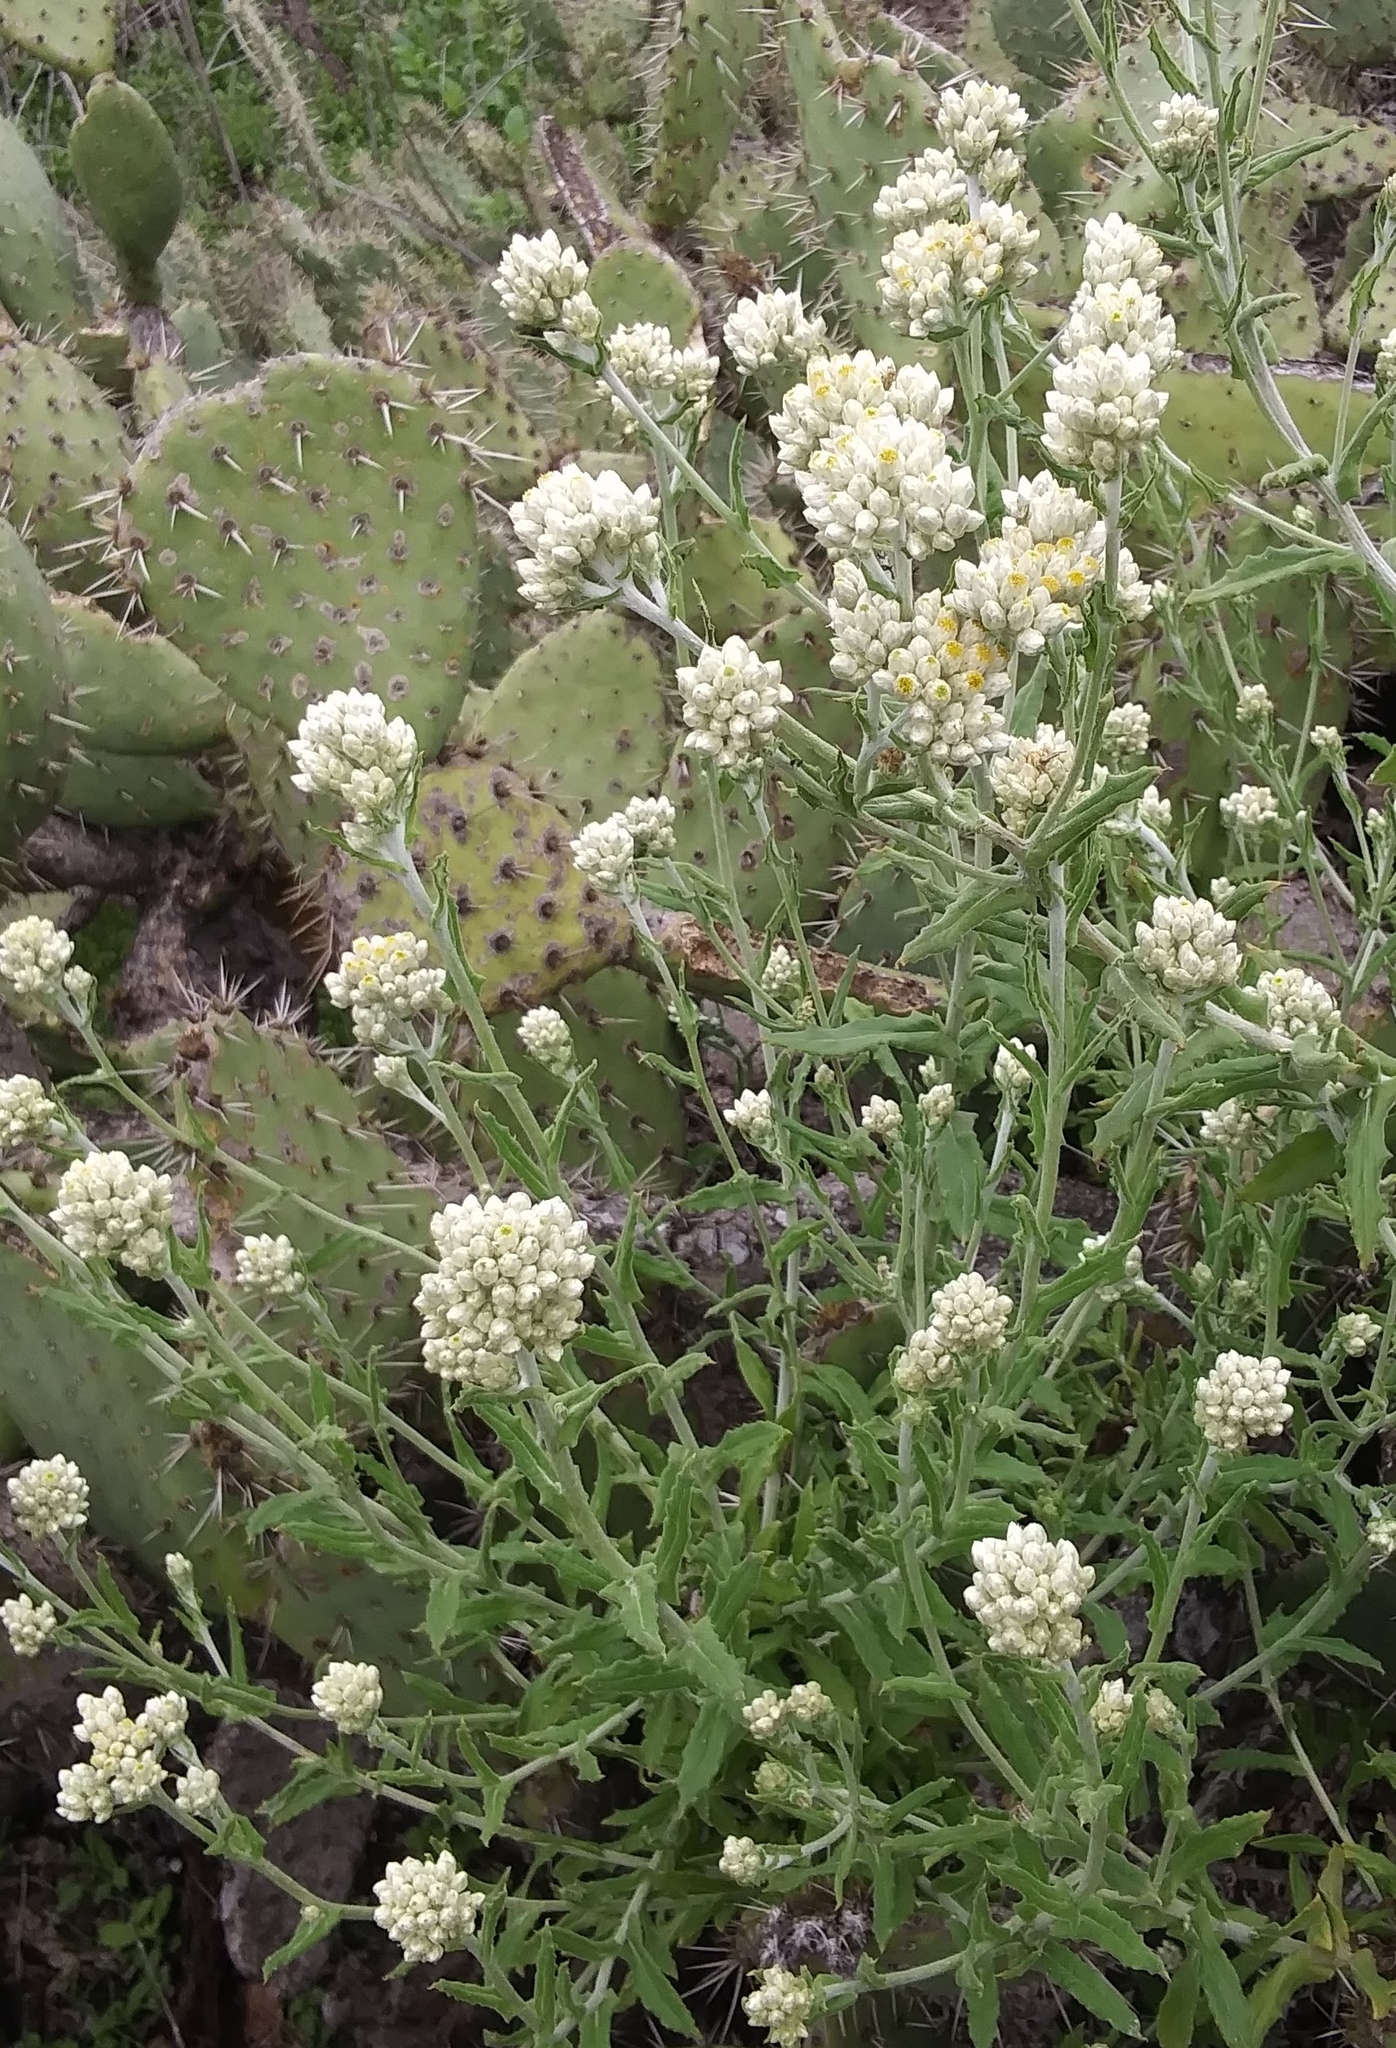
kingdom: Plantae
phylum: Tracheophyta
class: Magnoliopsida
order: Asterales
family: Asteraceae
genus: Pseudognaphalium
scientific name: Pseudognaphalium biolettii
